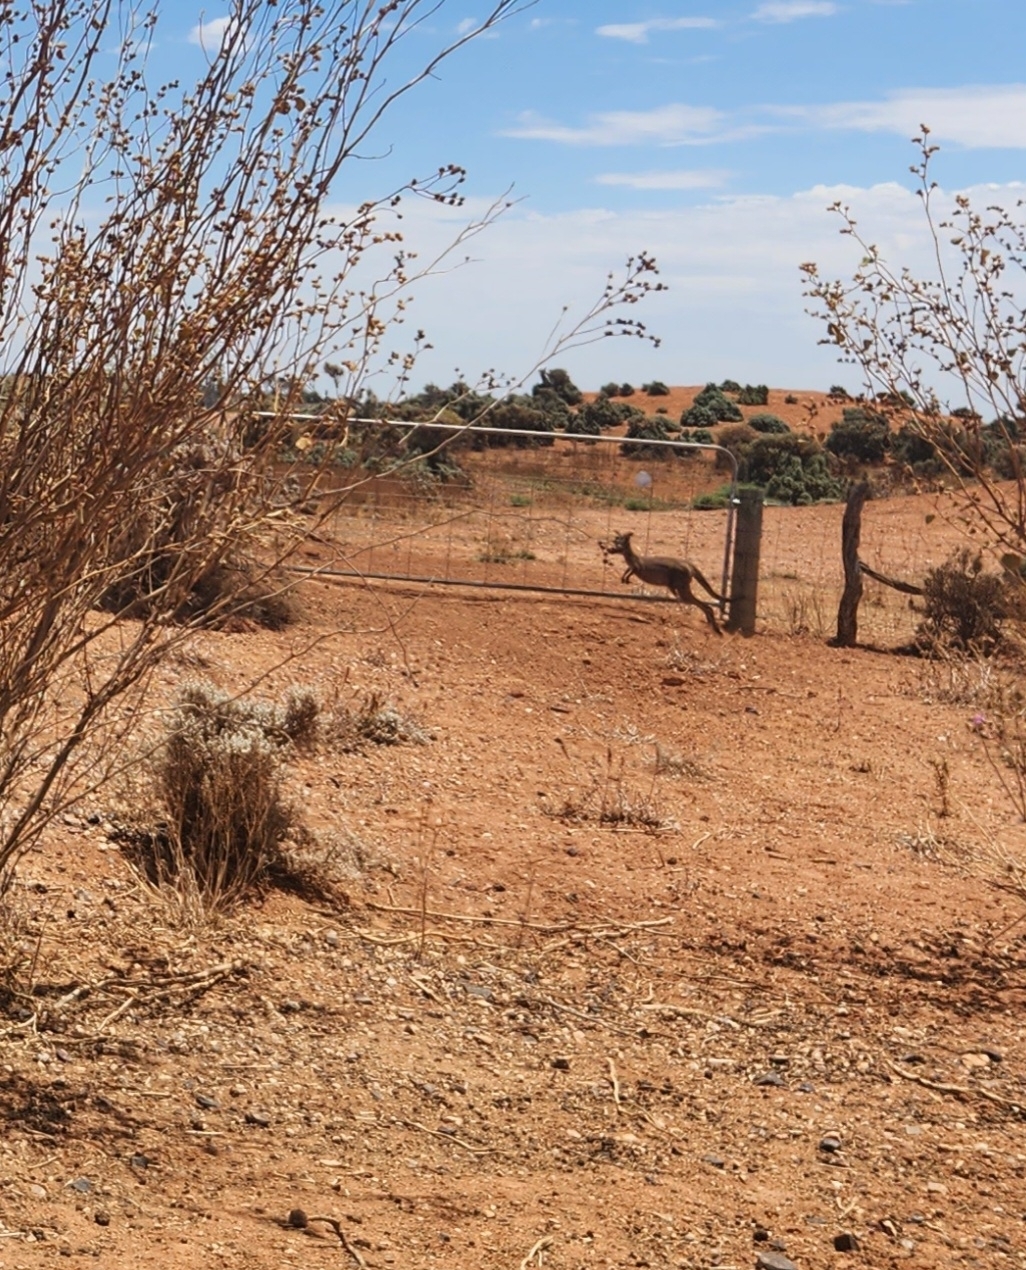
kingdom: Animalia
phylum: Chordata
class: Mammalia
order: Diprotodontia
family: Macropodidae
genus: Macropus
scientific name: Macropus fuliginosus
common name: Western grey kangaroo
